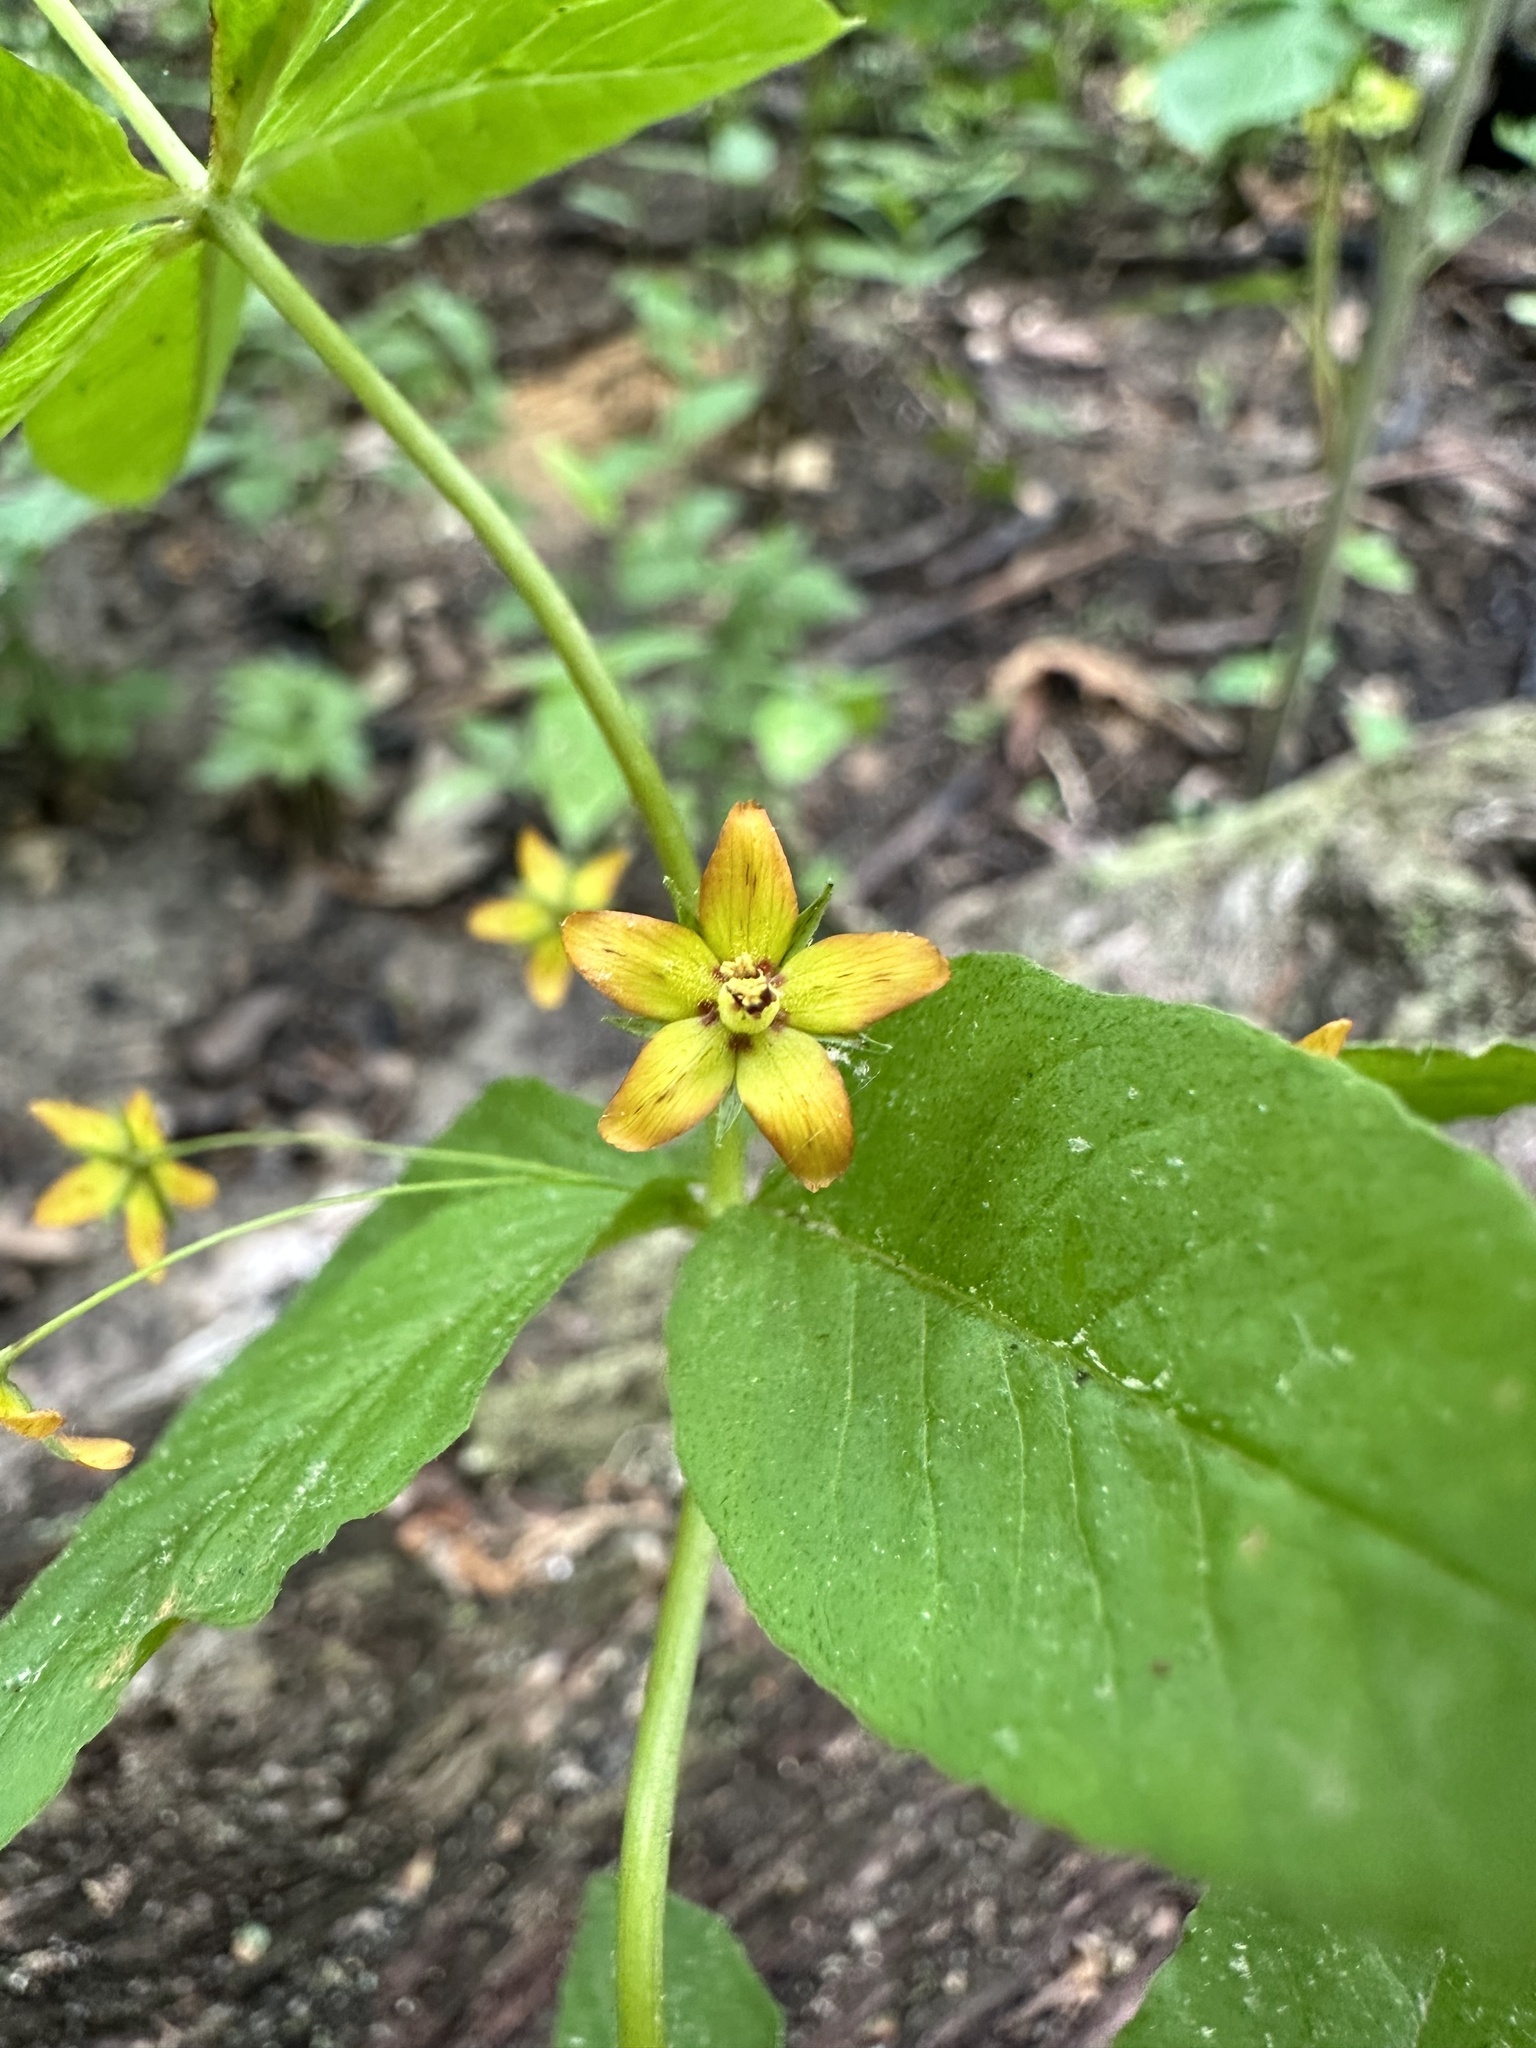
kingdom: Plantae
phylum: Tracheophyta
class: Magnoliopsida
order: Ericales
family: Primulaceae
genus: Lysimachia
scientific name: Lysimachia quadrifolia
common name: Whorled loosestrife
